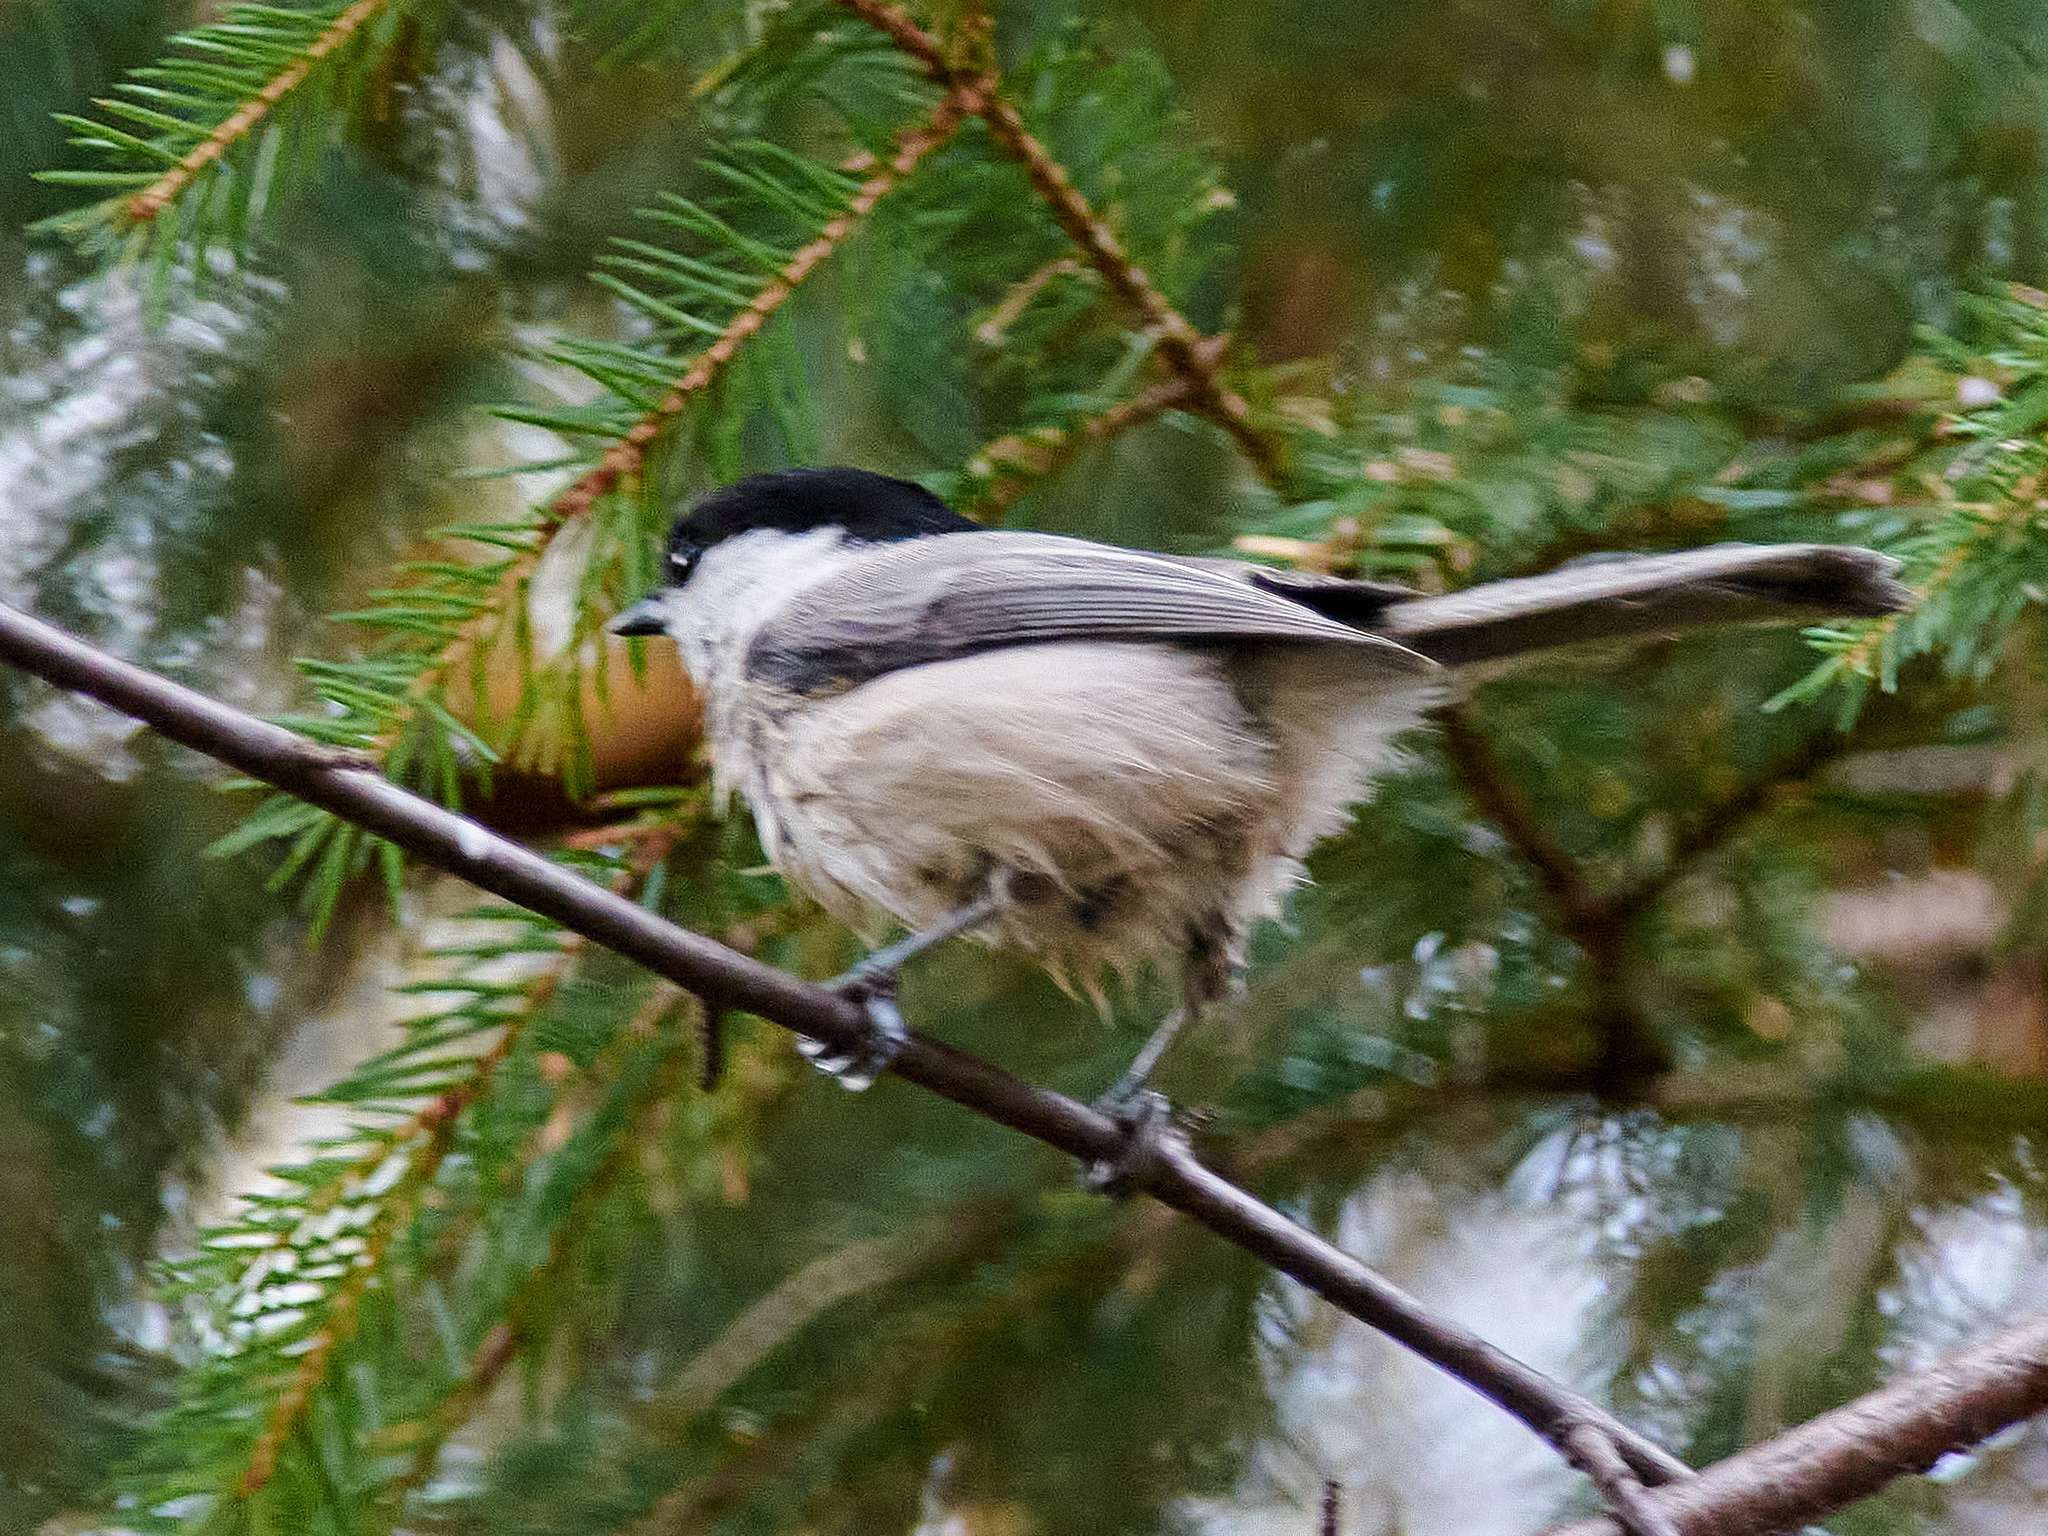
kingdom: Animalia
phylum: Chordata
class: Aves
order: Passeriformes
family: Paridae
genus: Poecile
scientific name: Poecile montanus
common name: Willow tit
